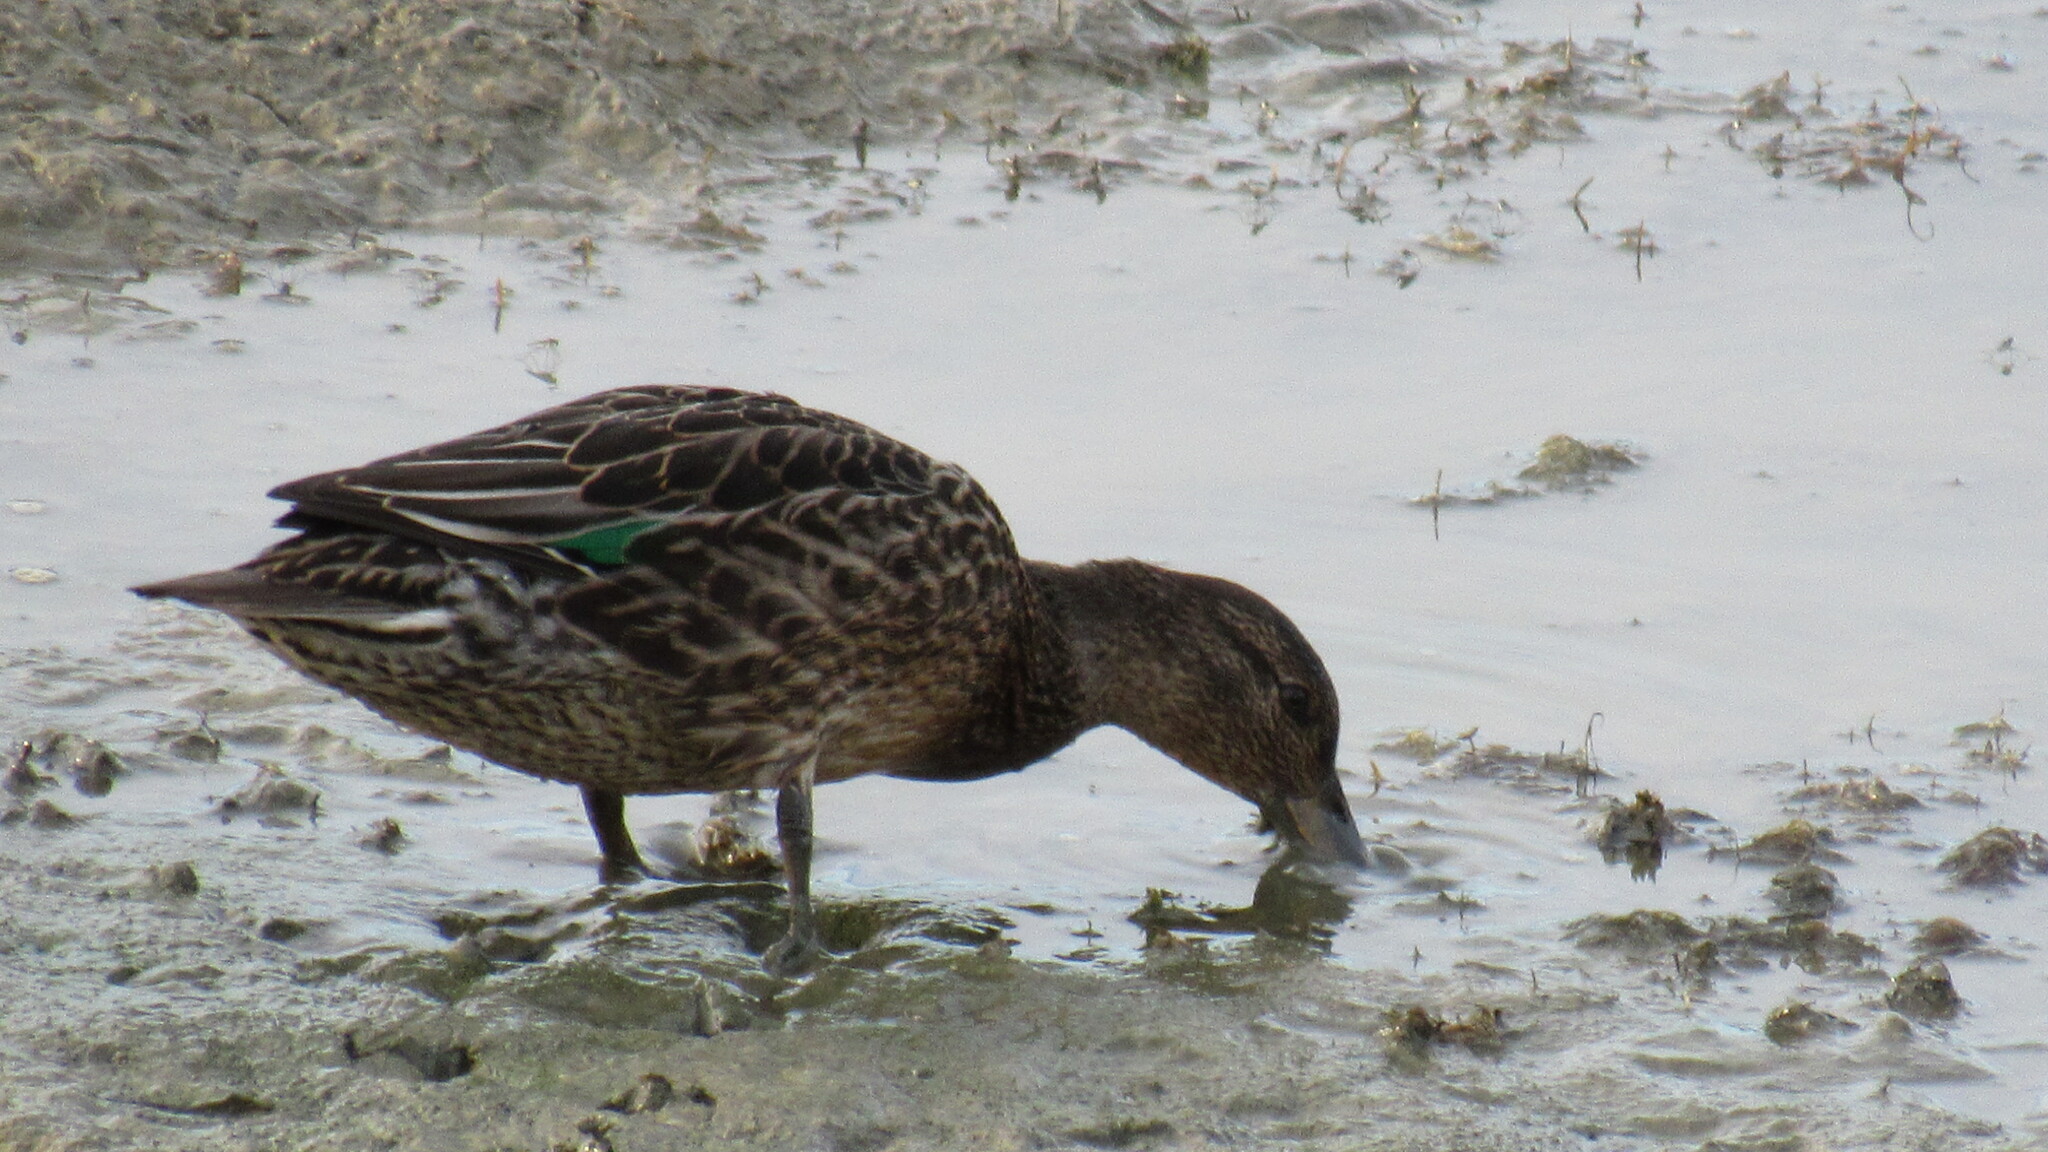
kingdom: Animalia
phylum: Chordata
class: Aves
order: Anseriformes
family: Anatidae
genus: Anas
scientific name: Anas crecca
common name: Eurasian teal
